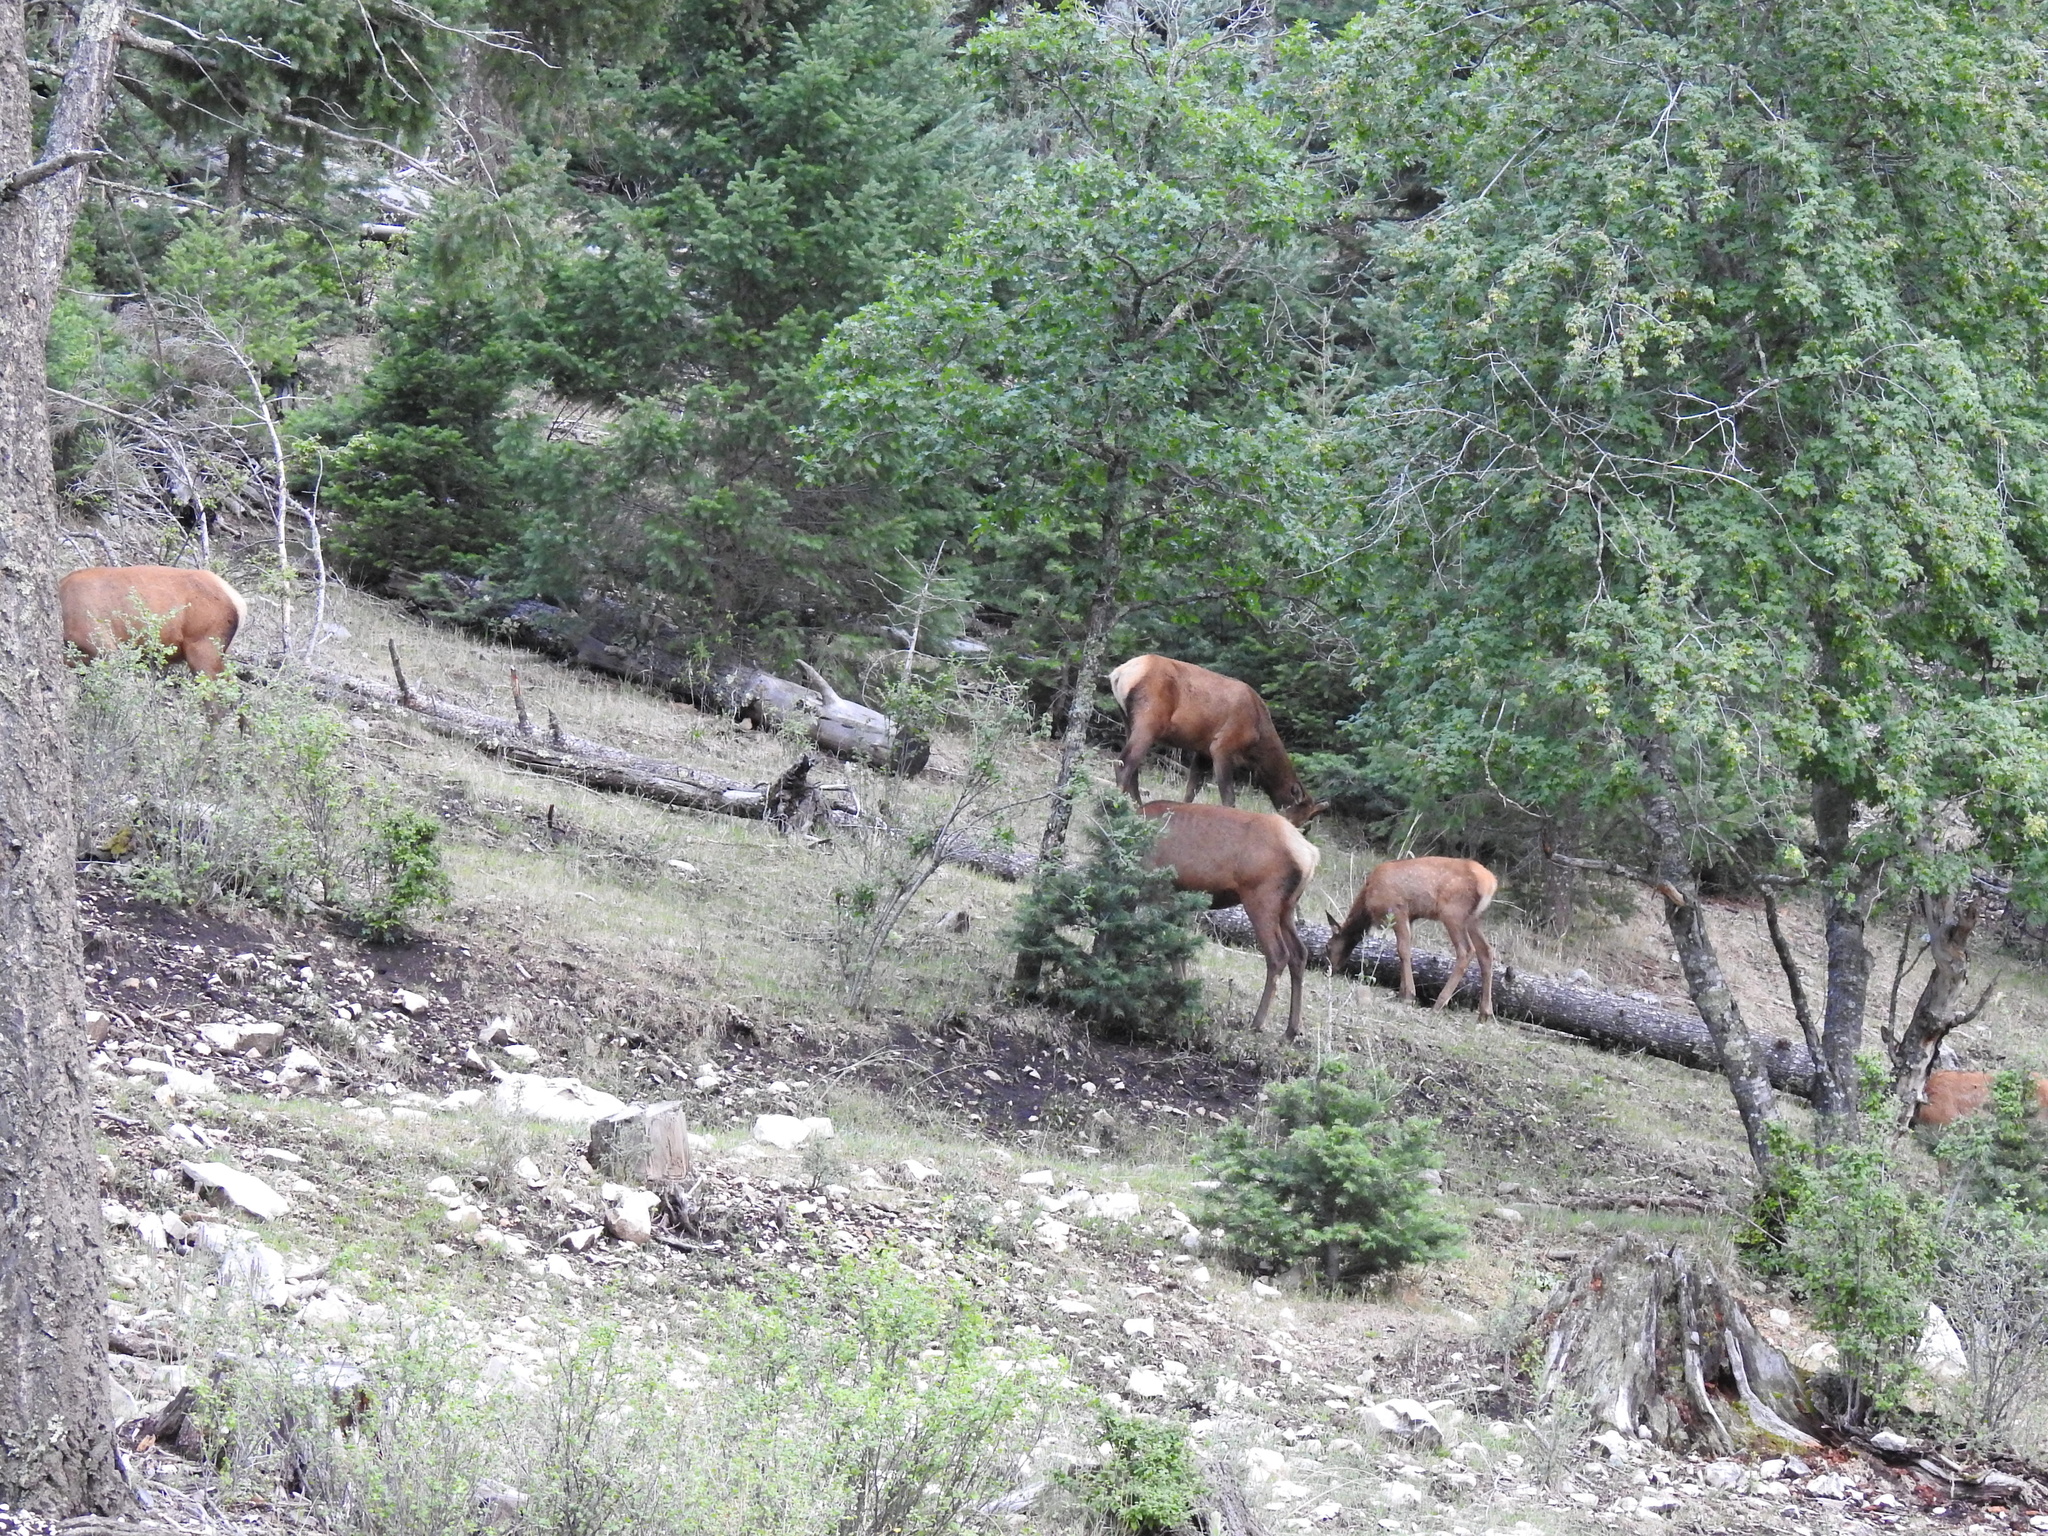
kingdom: Animalia
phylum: Chordata
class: Mammalia
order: Artiodactyla
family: Cervidae
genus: Cervus
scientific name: Cervus elaphus
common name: Red deer
